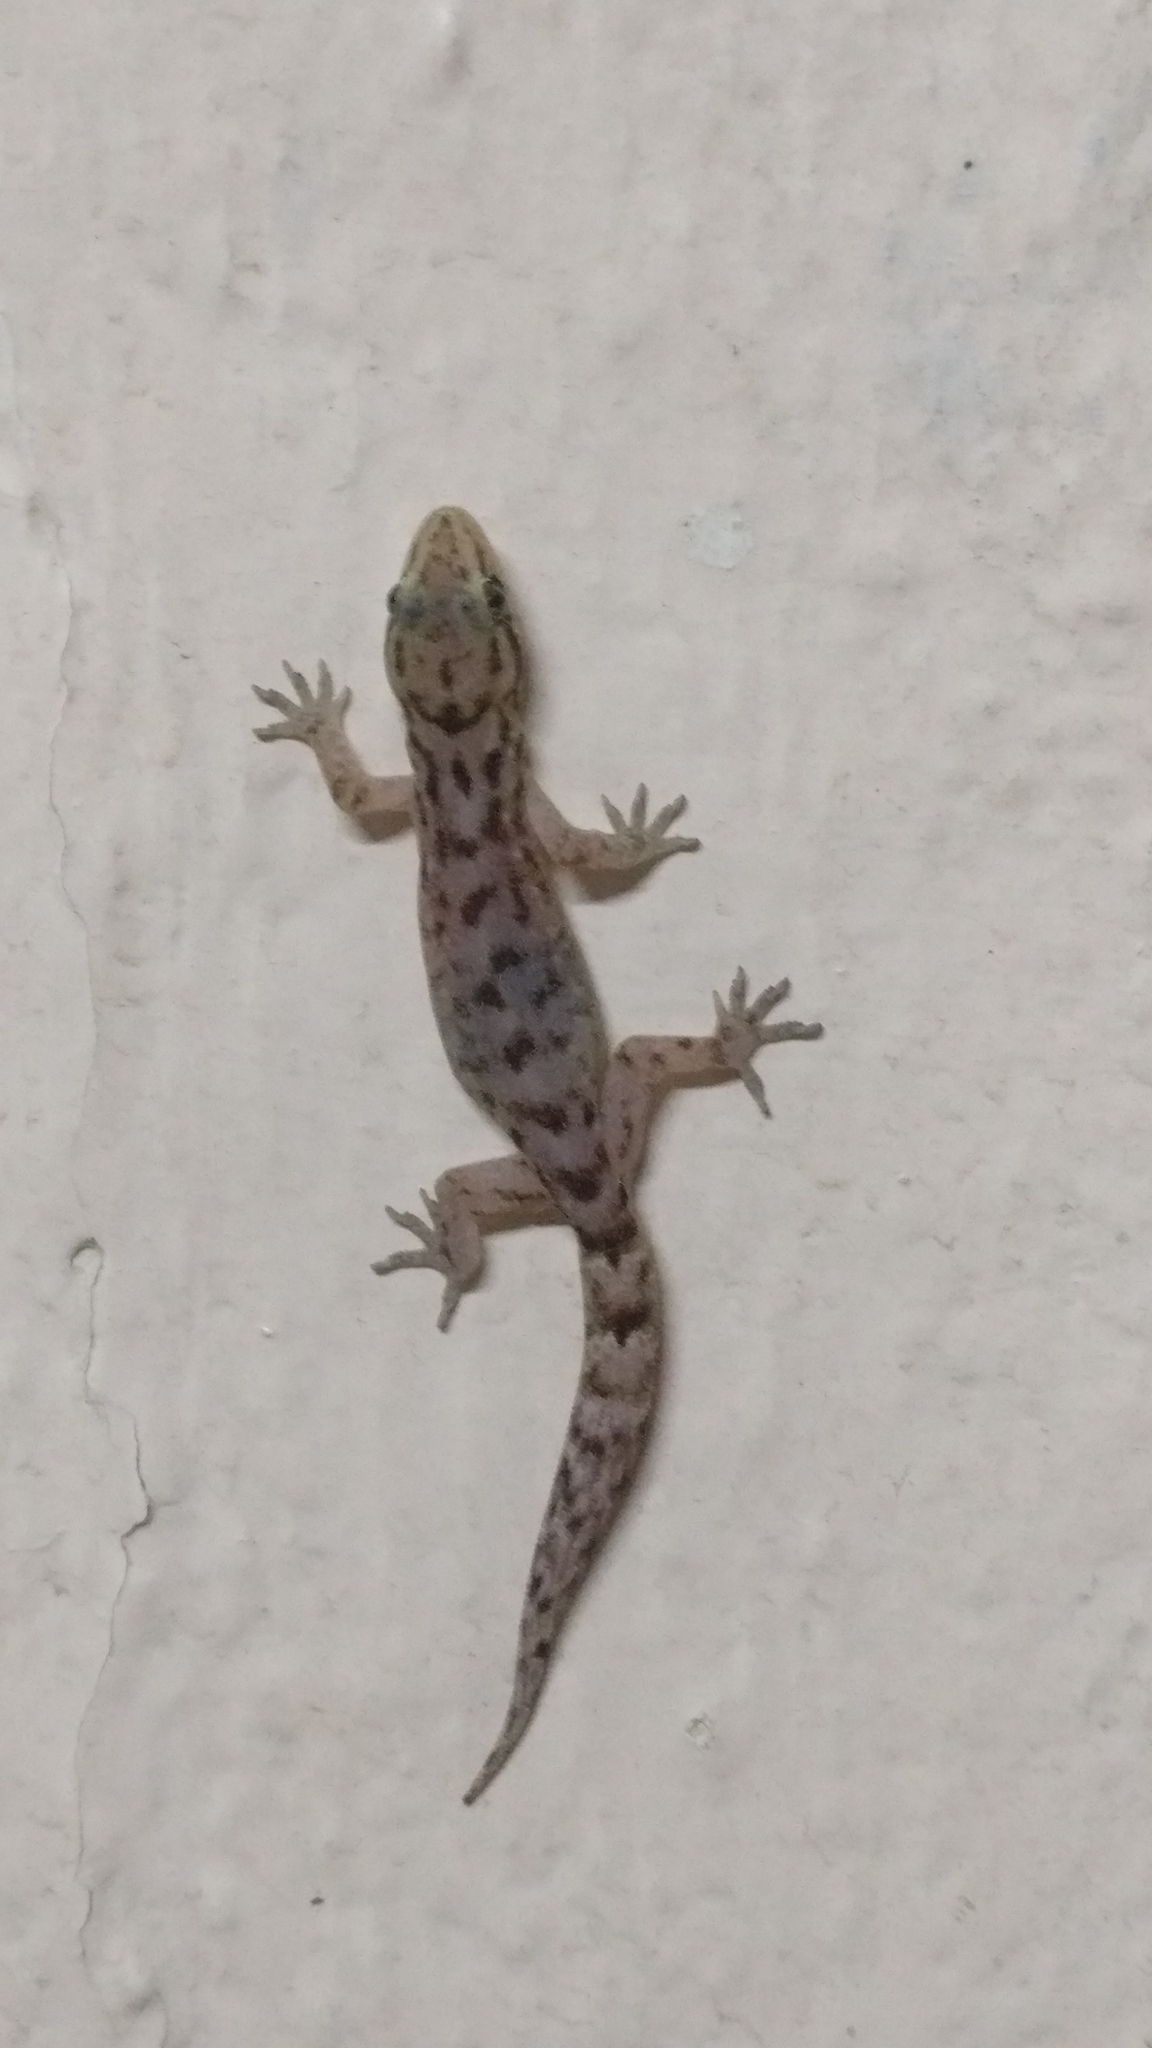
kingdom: Animalia
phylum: Chordata
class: Squamata
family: Gekkonidae
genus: Dravidogecko
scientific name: Dravidogecko tholpalli
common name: Kodaikanal dravidogecko
